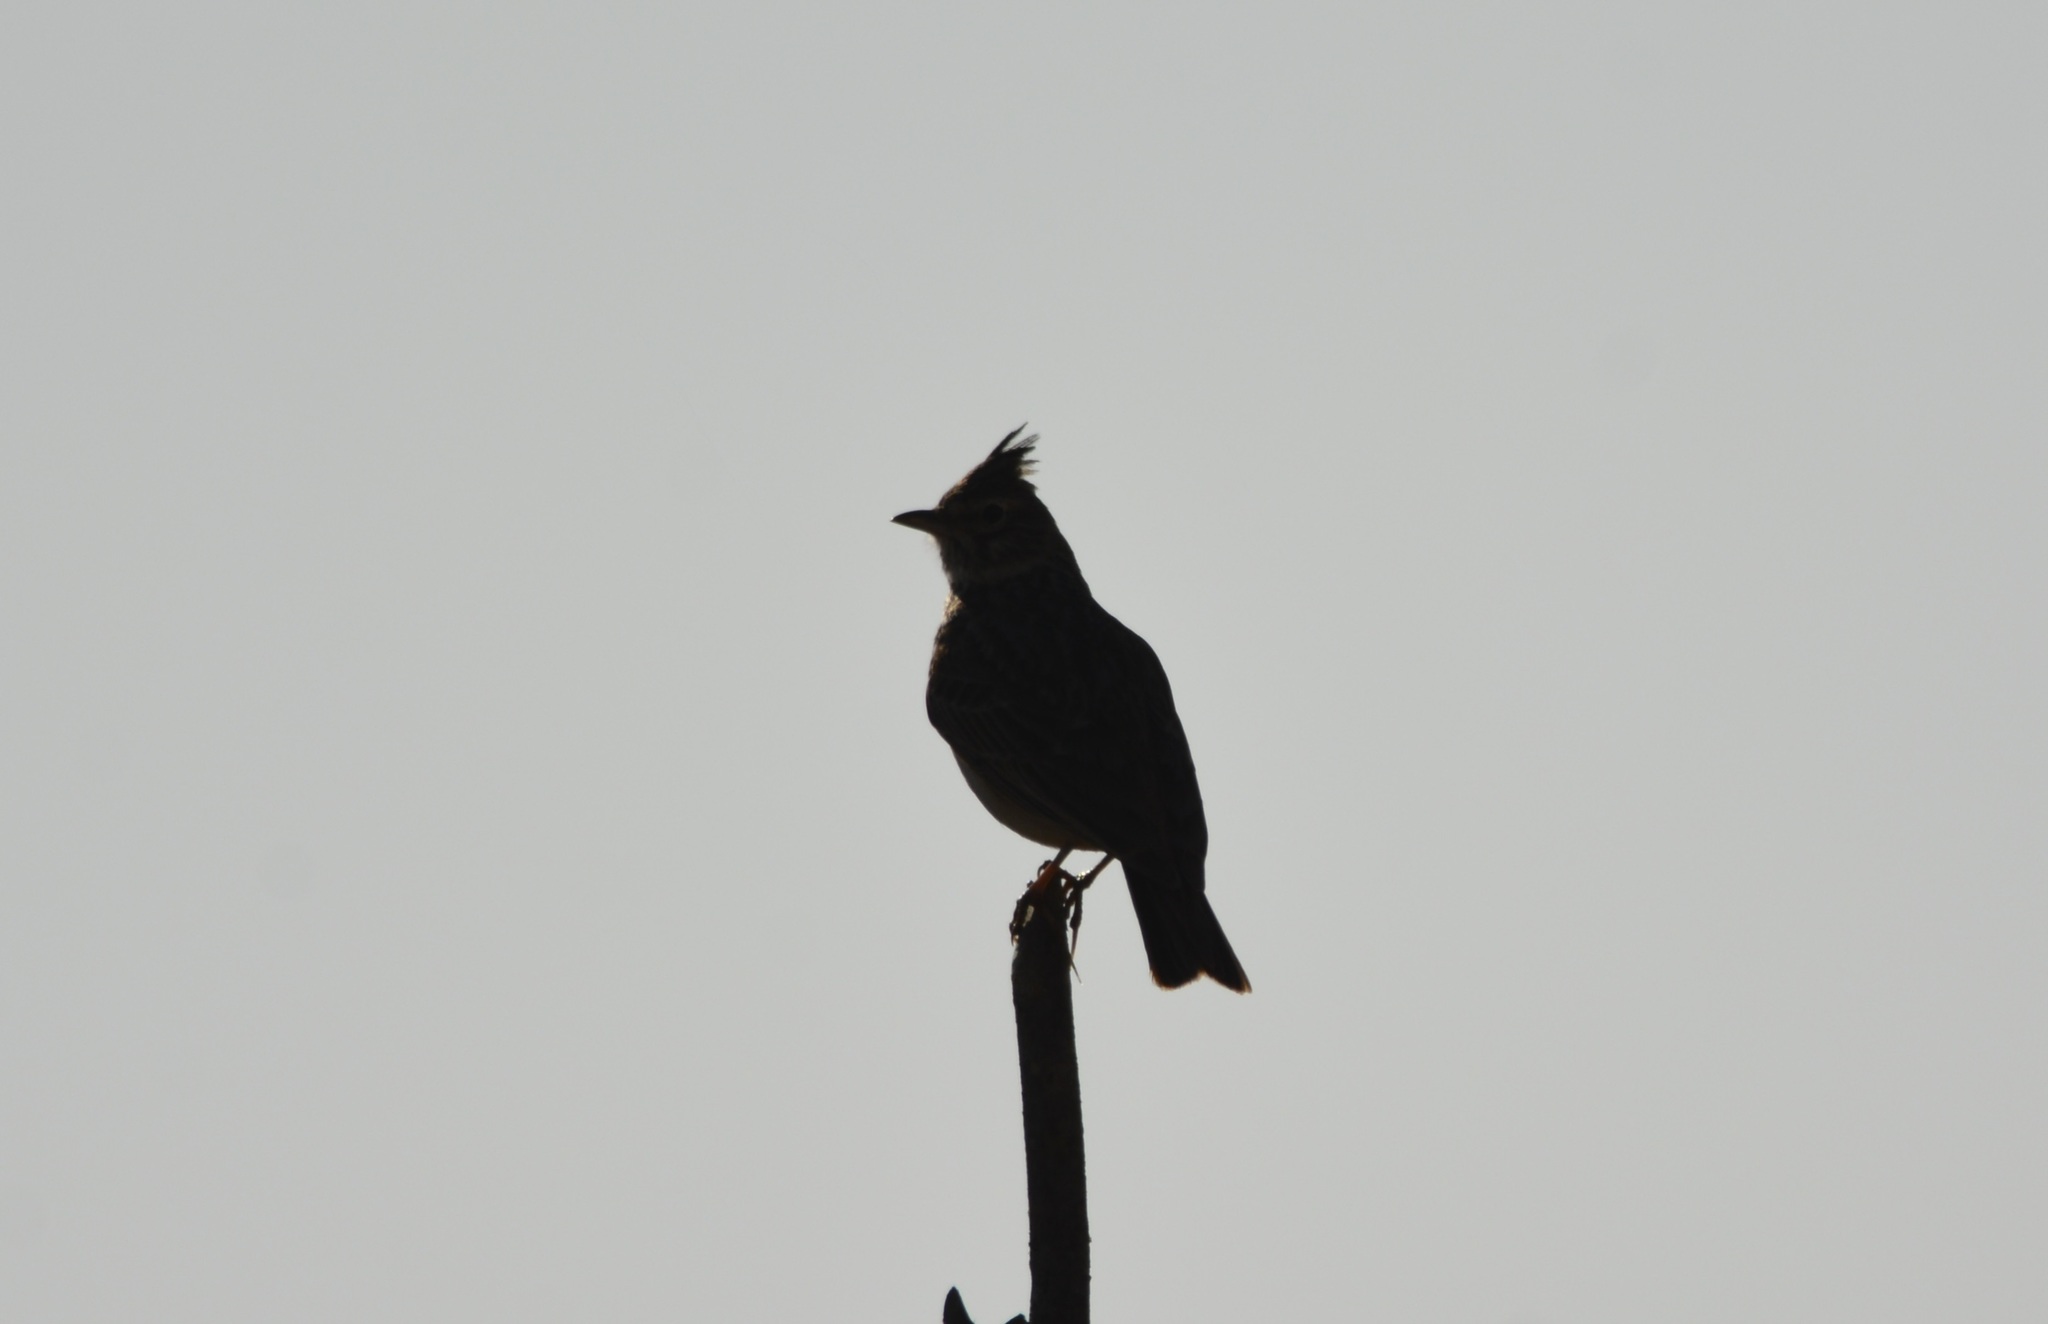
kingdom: Animalia
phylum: Chordata
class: Aves
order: Passeriformes
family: Alaudidae
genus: Galerida
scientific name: Galerida cristata
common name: Crested lark
